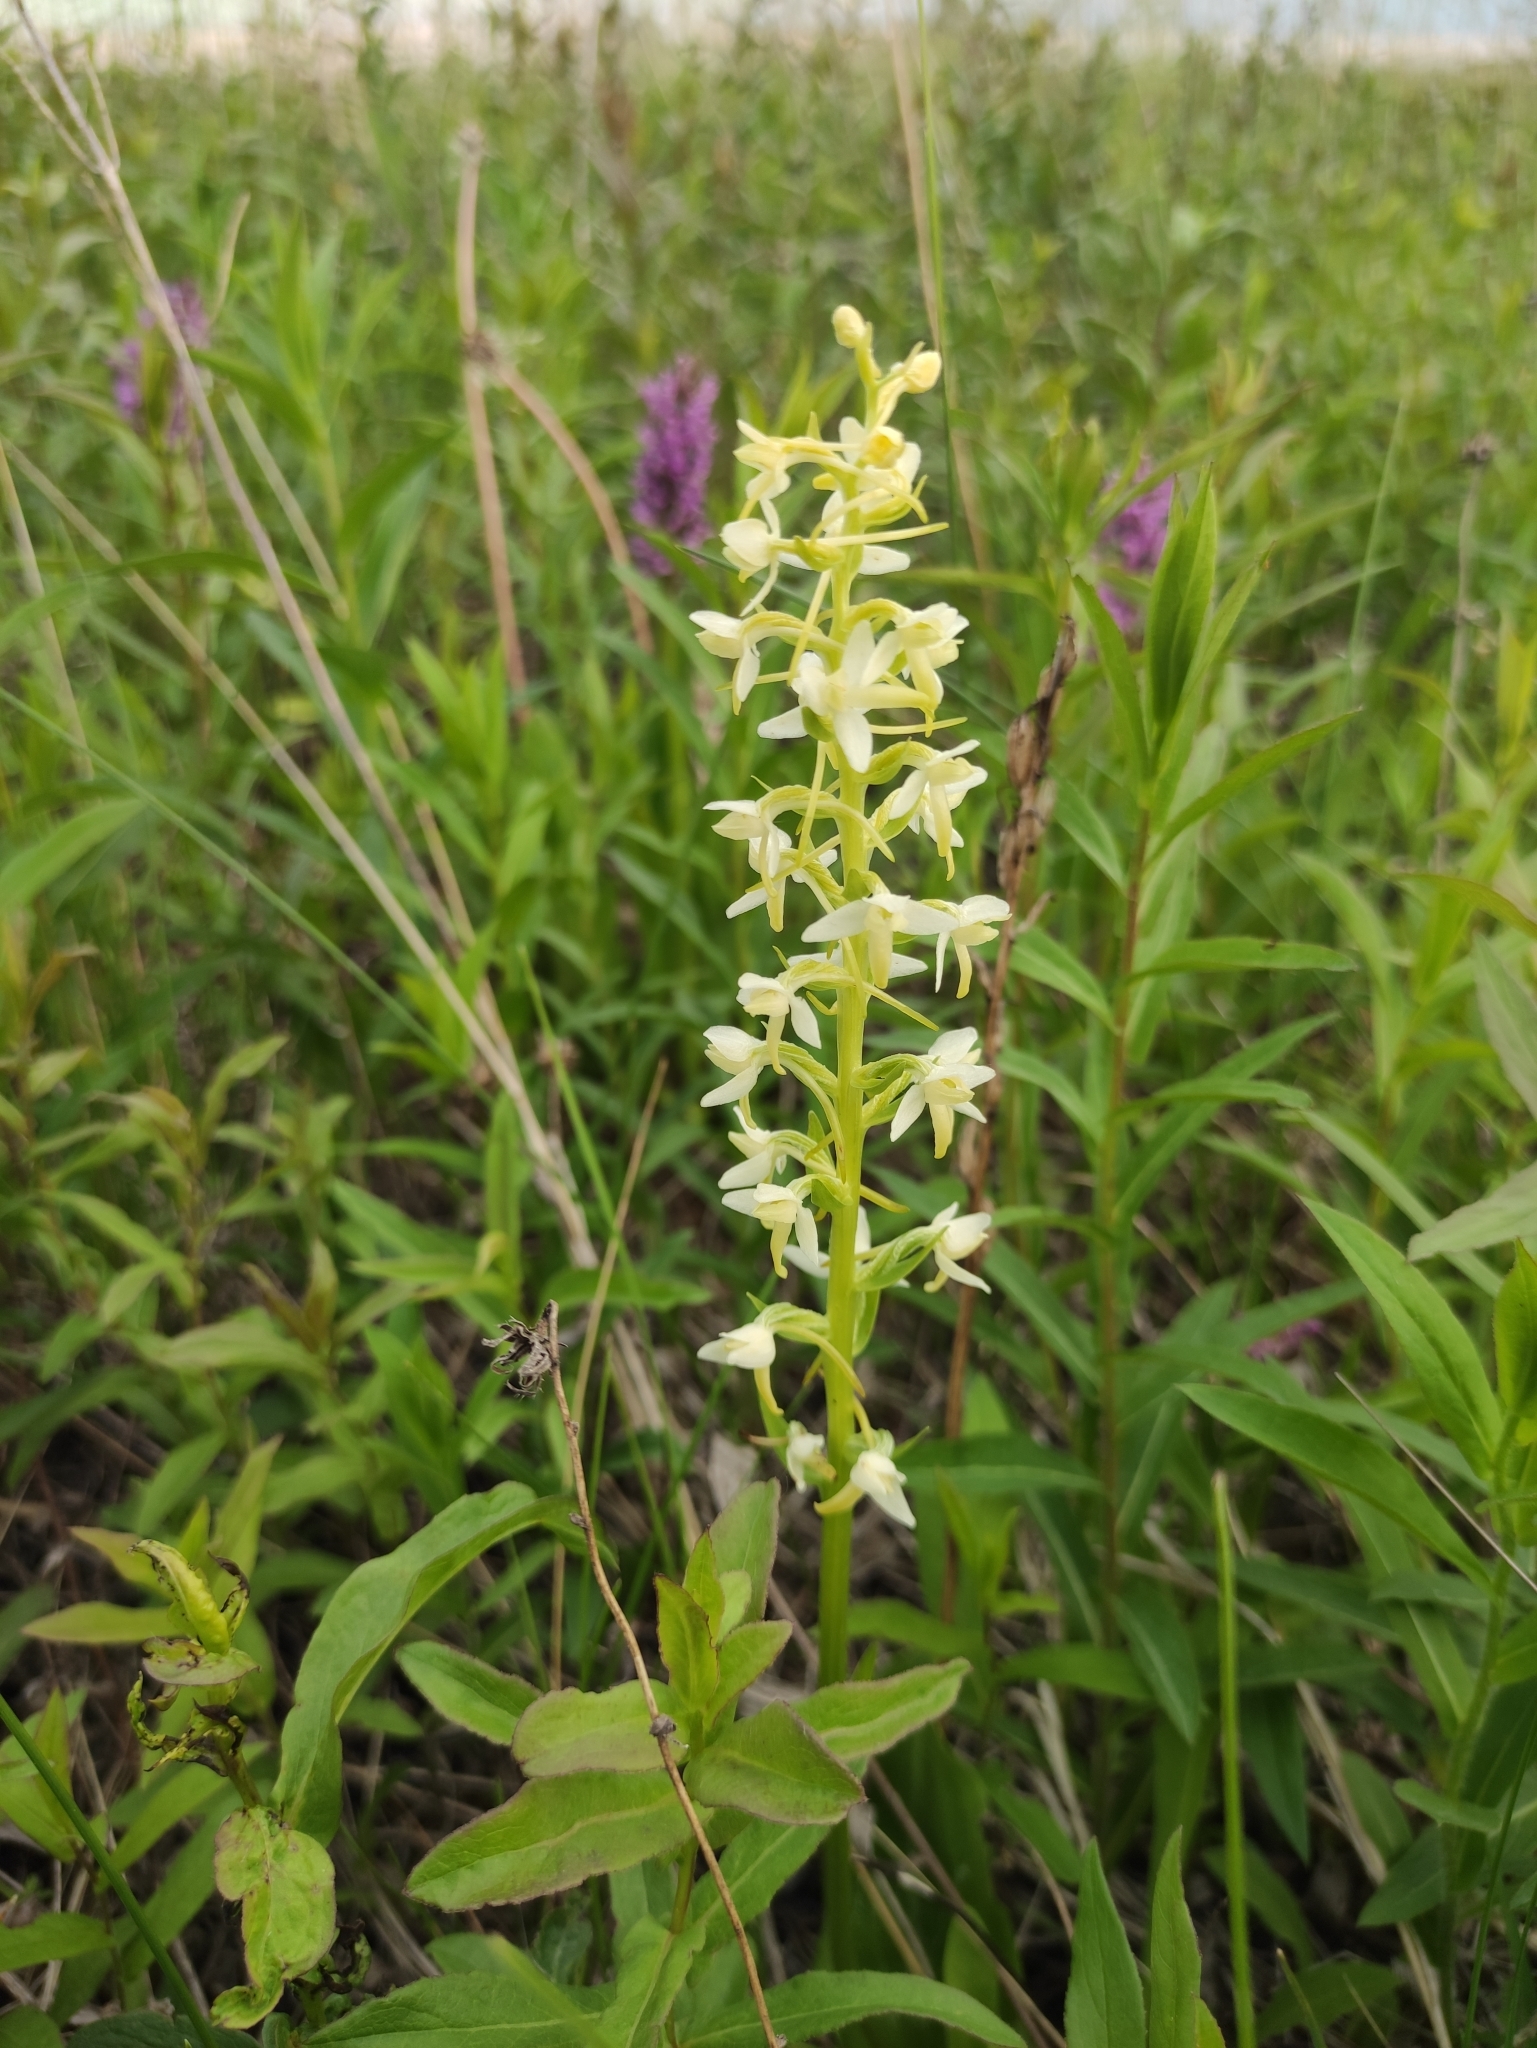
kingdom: Plantae
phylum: Tracheophyta
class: Liliopsida
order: Asparagales
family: Orchidaceae
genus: Platanthera
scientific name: Platanthera bifolia
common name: Lesser butterfly-orchid
